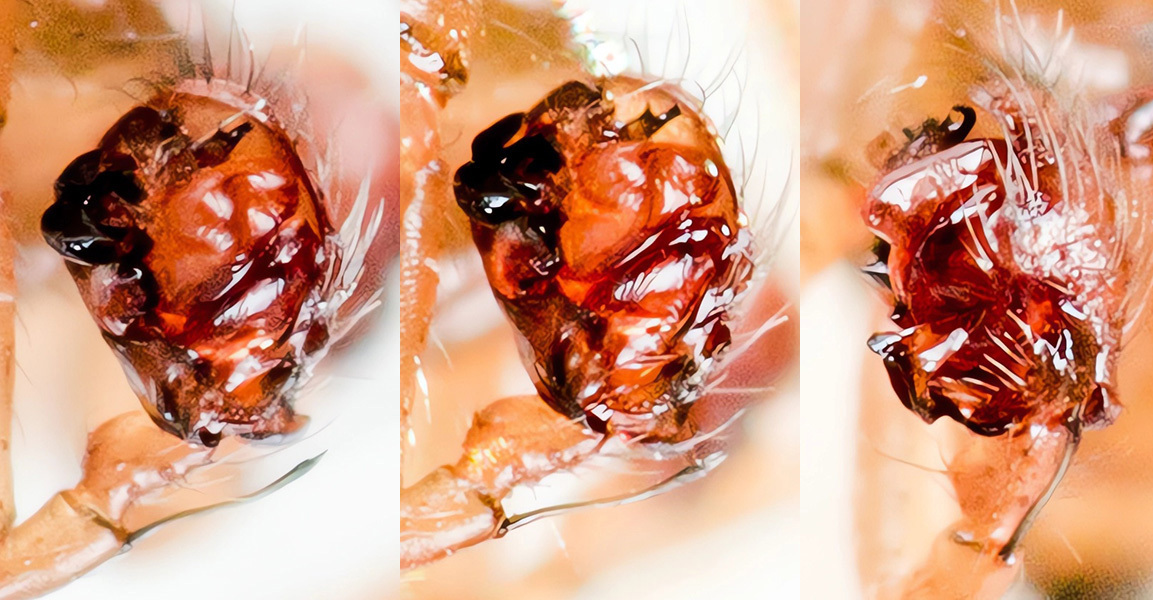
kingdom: Animalia
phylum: Arthropoda
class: Arachnida
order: Araneae
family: Linyphiidae
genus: Bolephthyphantes
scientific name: Bolephthyphantes indexoides
